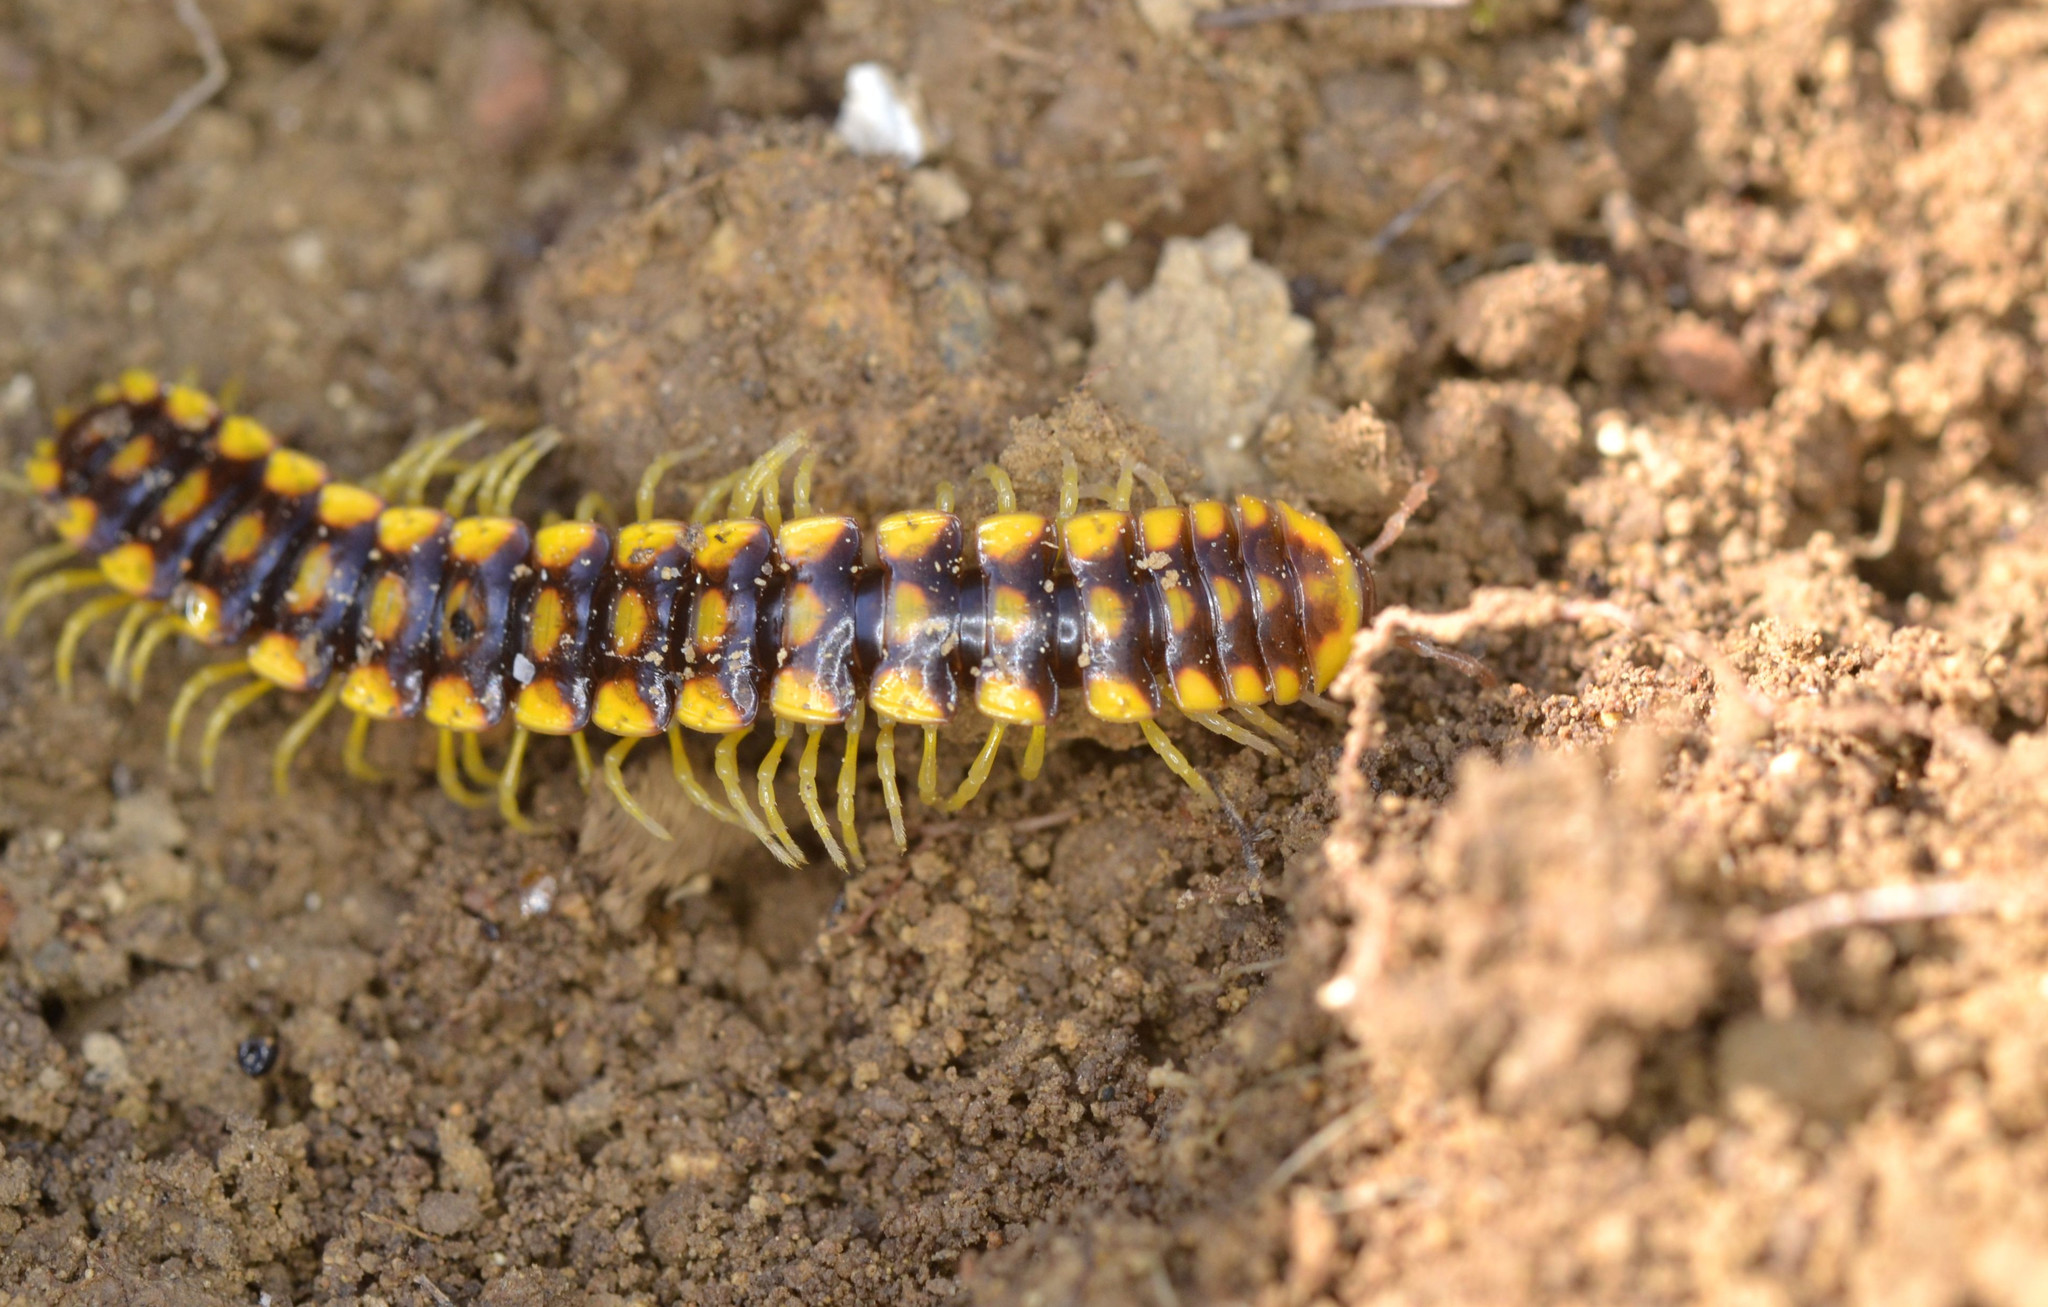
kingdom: Animalia
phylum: Arthropoda
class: Diplopoda
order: Polydesmida
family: Xystodesmidae
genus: Melaphe
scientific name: Melaphe vestita
